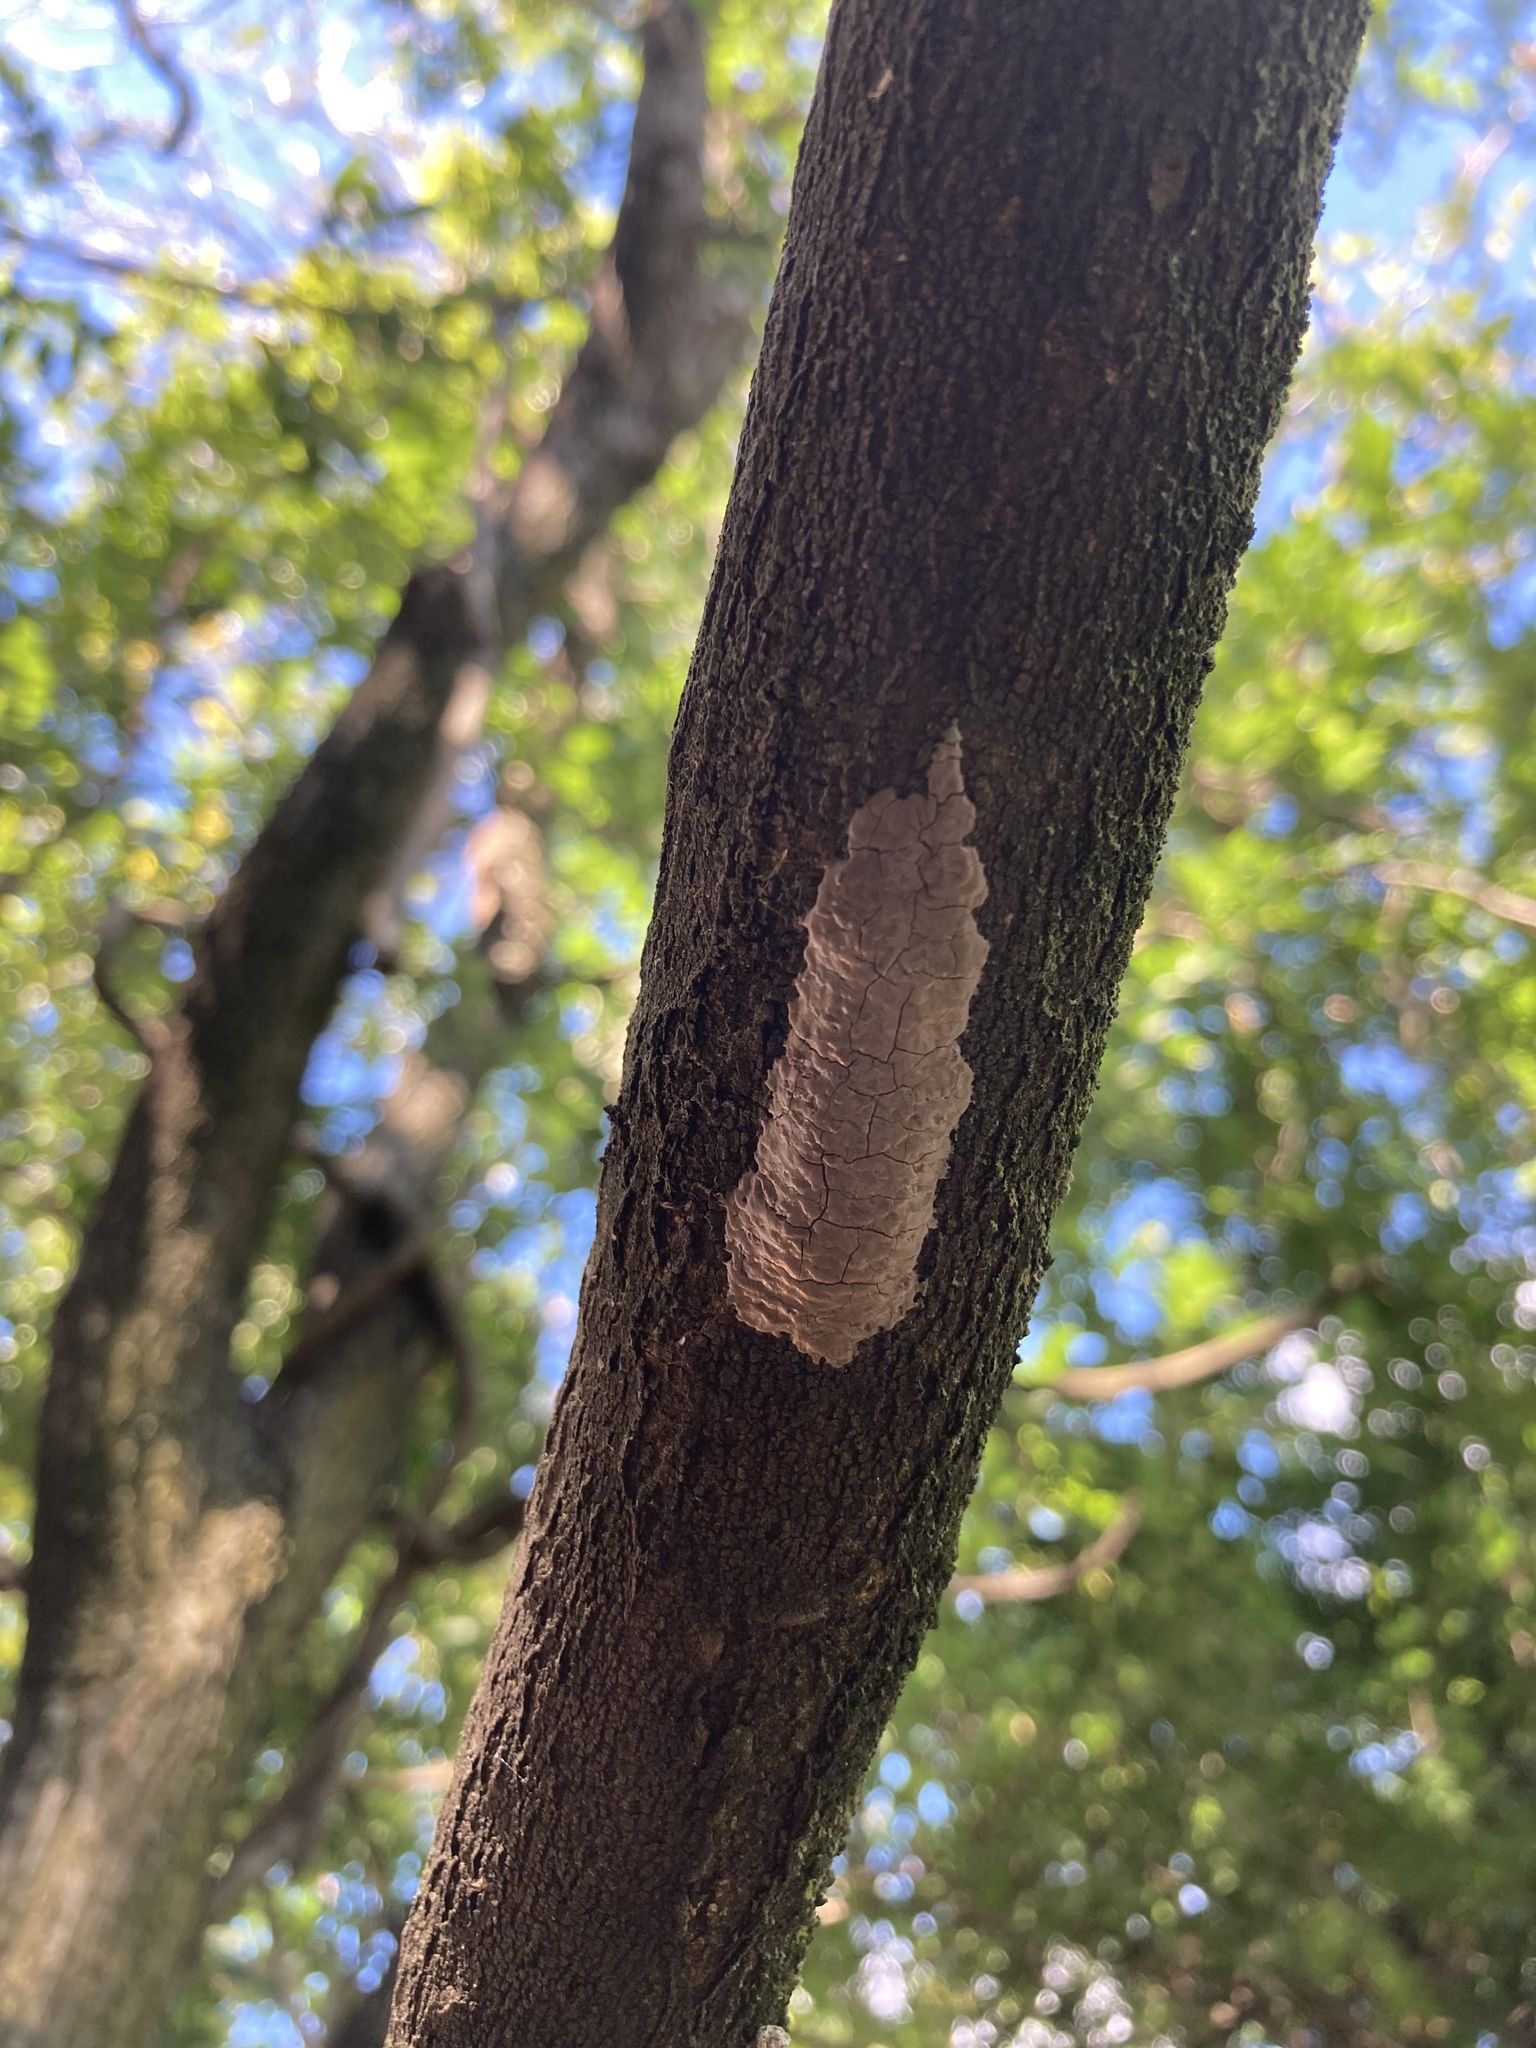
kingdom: Animalia
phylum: Arthropoda
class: Insecta
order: Hemiptera
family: Fulgoridae
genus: Lycorma
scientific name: Lycorma delicatula
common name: Spotted lanternfly
